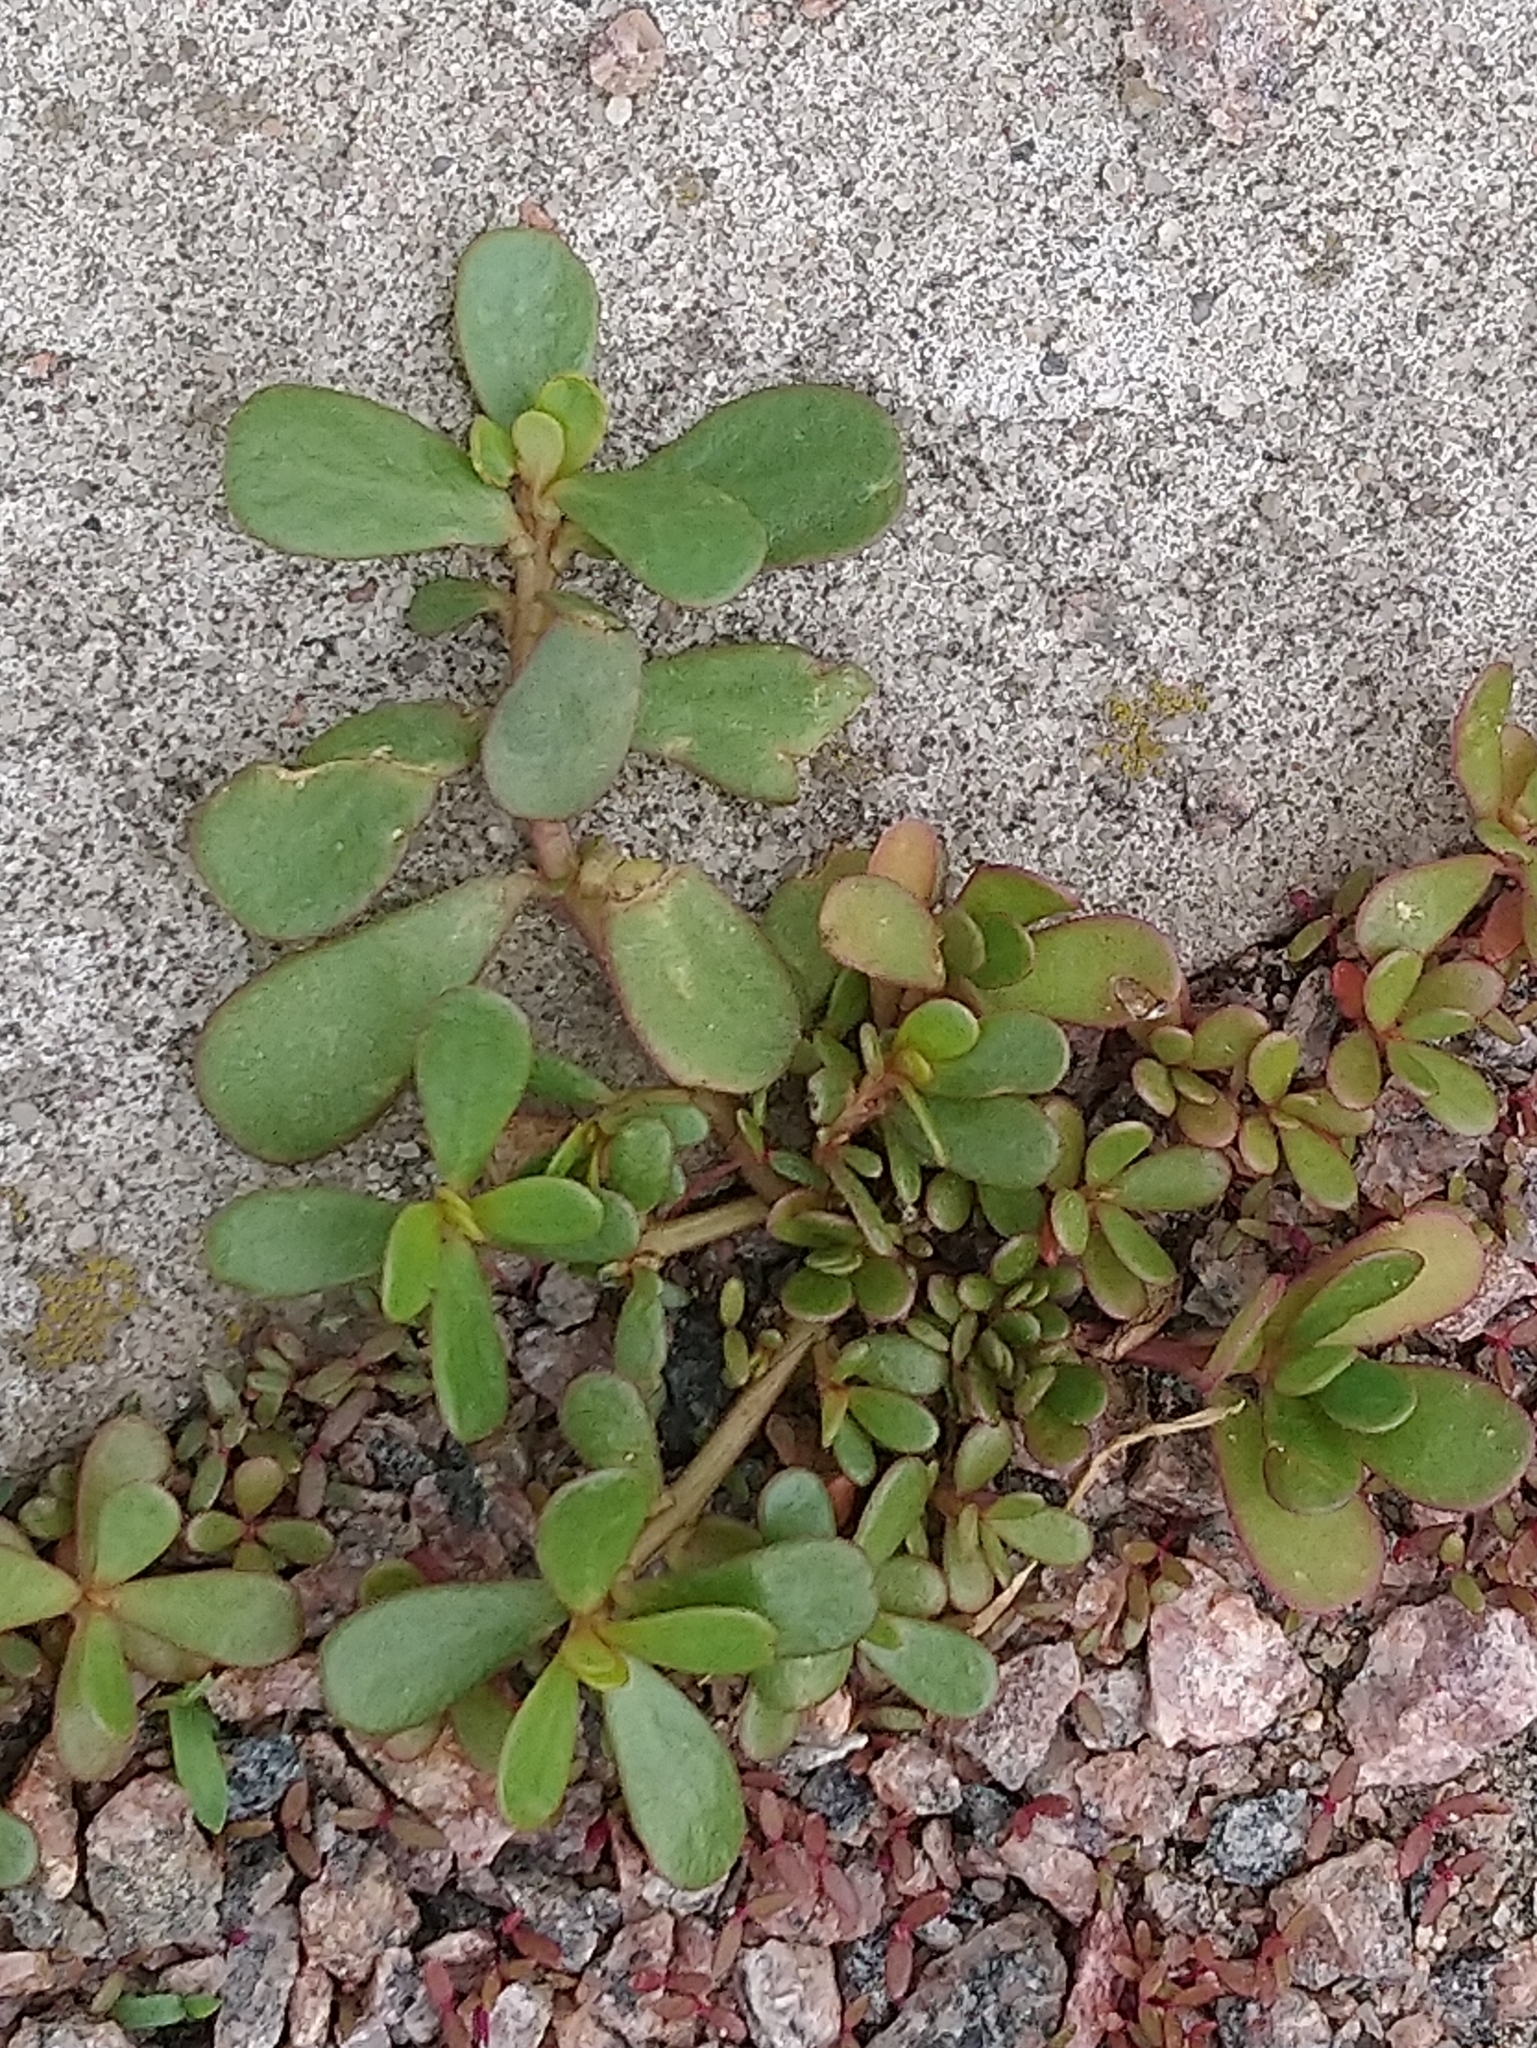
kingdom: Plantae
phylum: Tracheophyta
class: Magnoliopsida
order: Caryophyllales
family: Portulacaceae
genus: Portulaca
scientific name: Portulaca oleracea
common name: Common purslane
